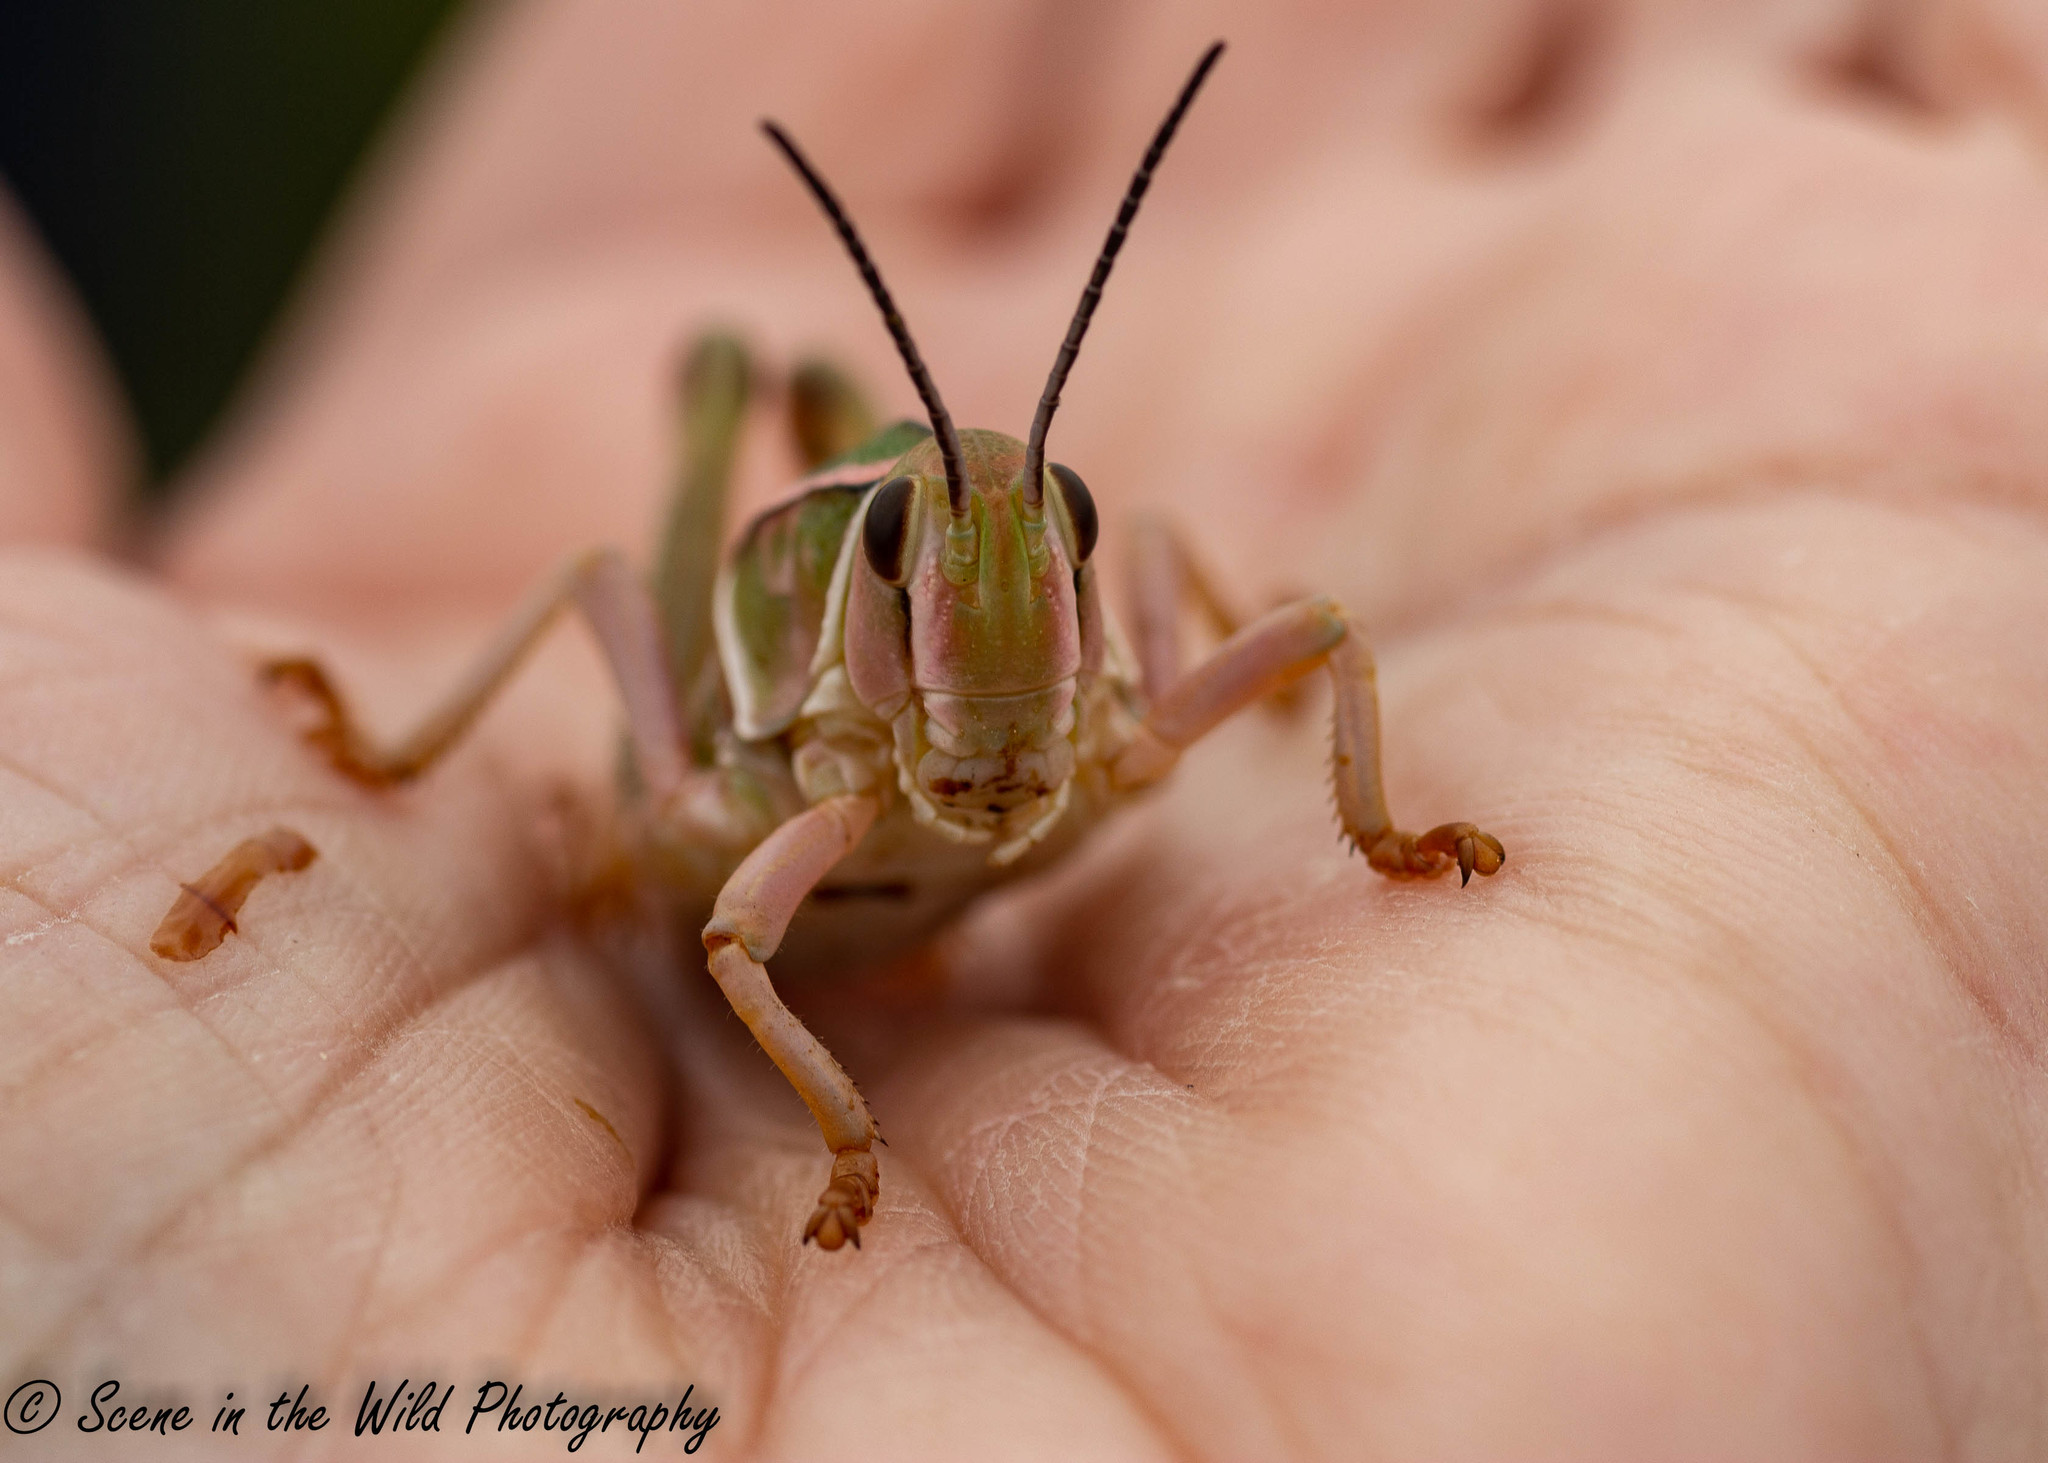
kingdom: Animalia
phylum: Arthropoda
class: Insecta
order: Orthoptera
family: Romaleidae
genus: Brachystola
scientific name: Brachystola magna
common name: Plains lubber grasshopper
